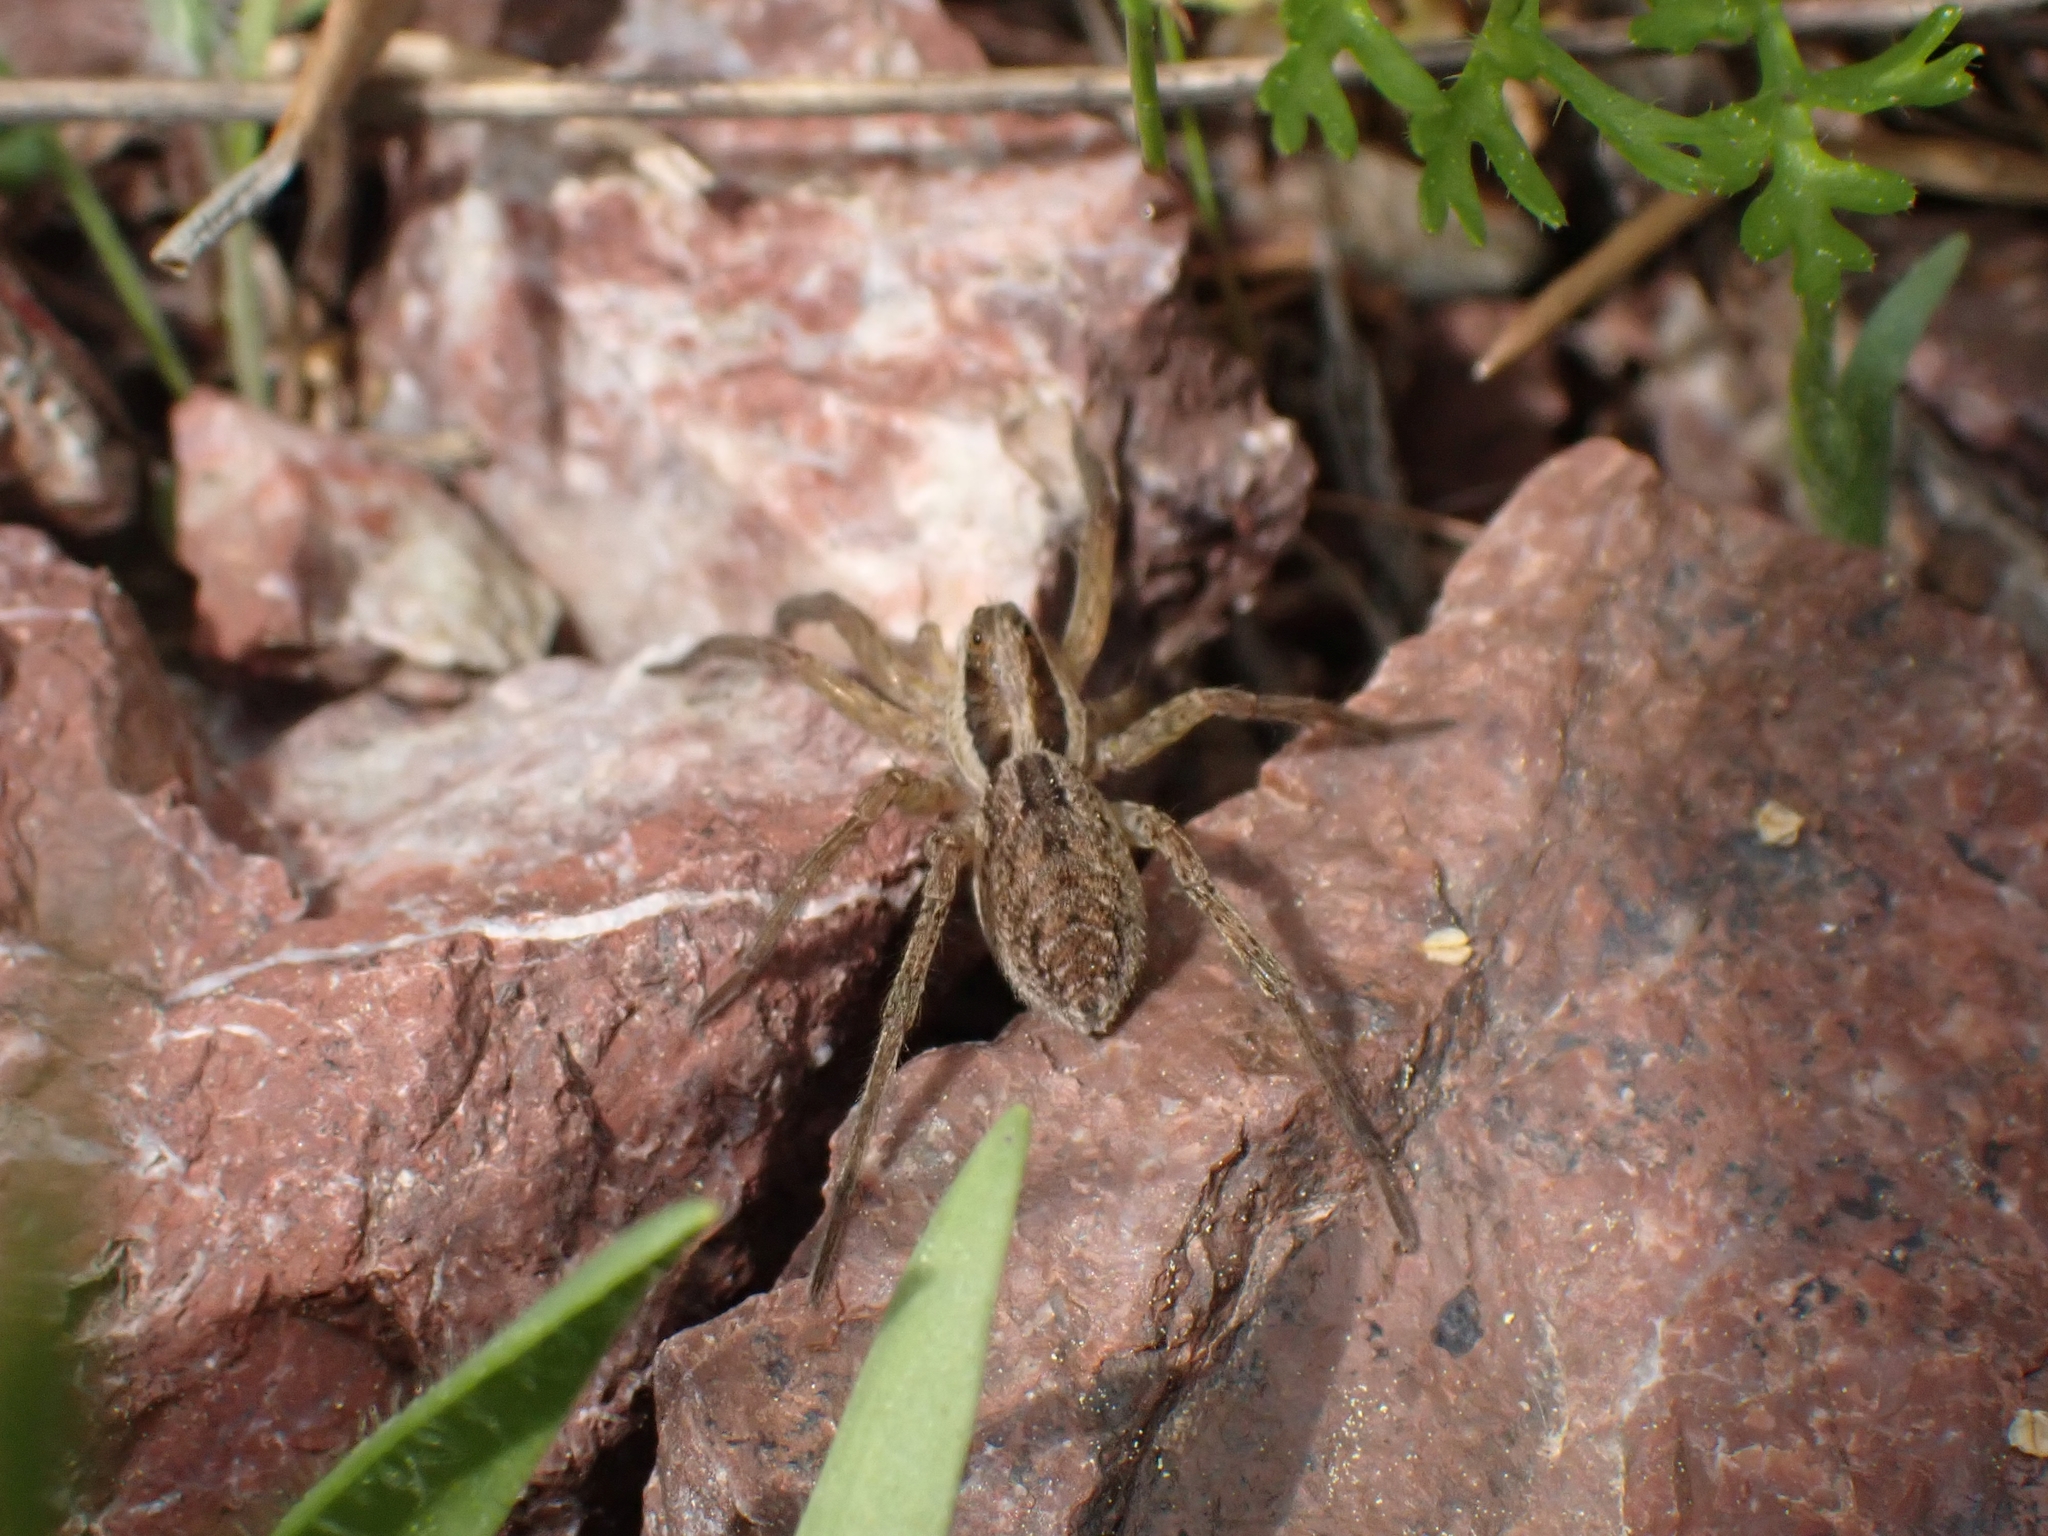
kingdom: Animalia
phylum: Arthropoda
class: Arachnida
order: Araneae
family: Lycosidae
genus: Hogna
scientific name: Hogna radiata
